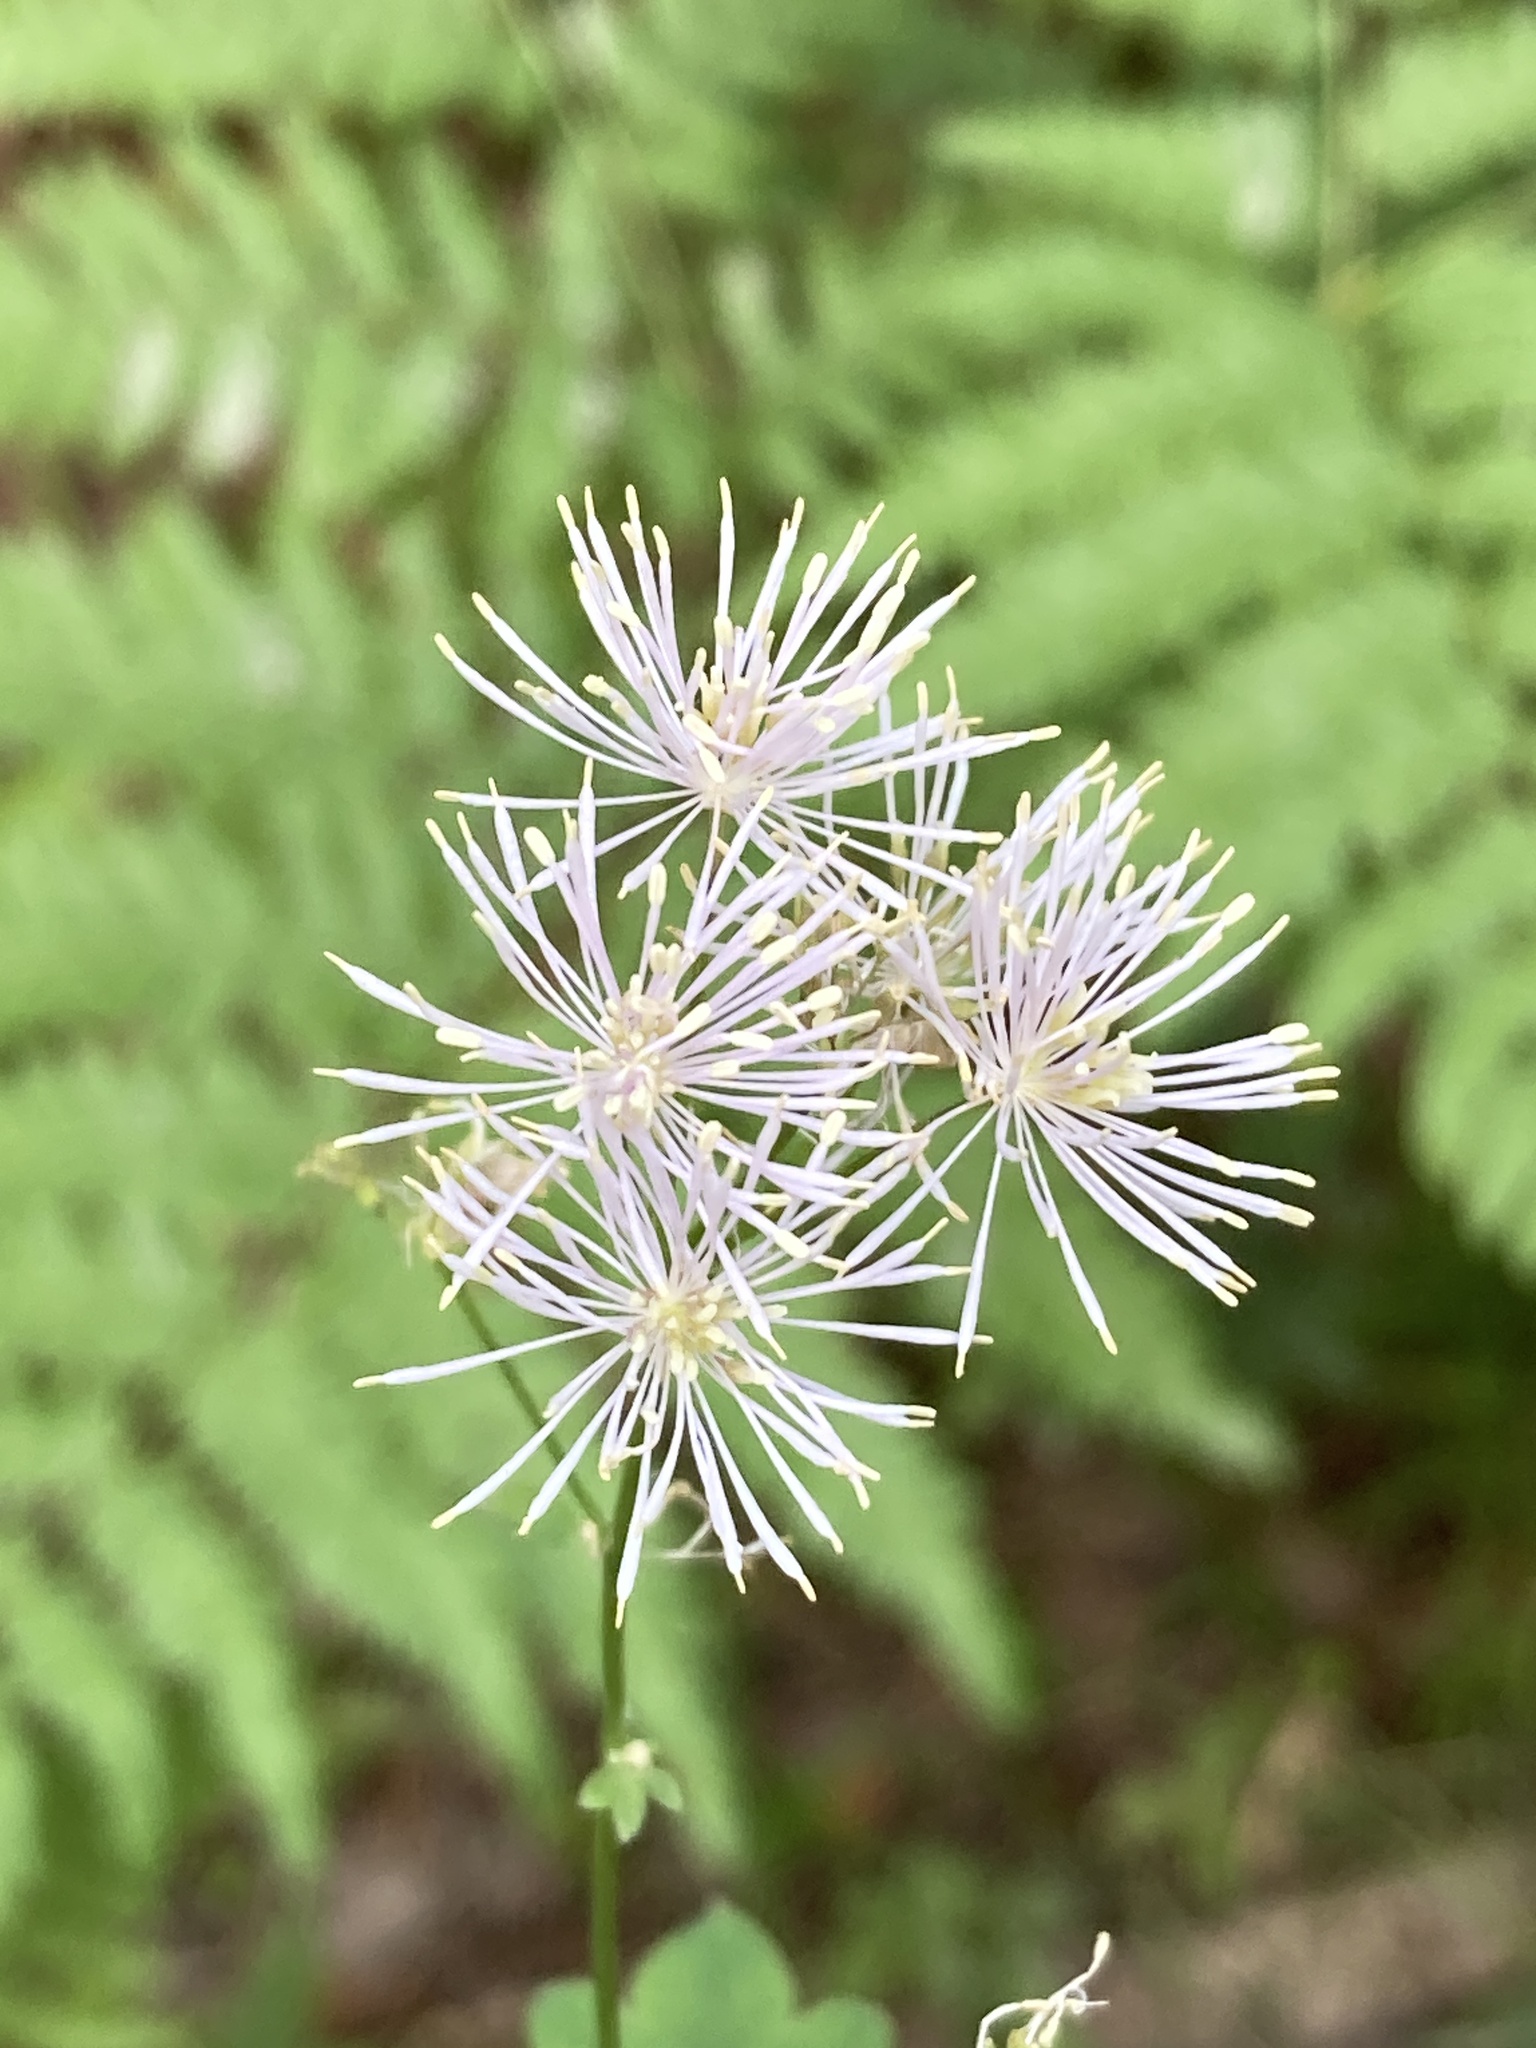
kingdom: Plantae
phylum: Tracheophyta
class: Magnoliopsida
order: Ranunculales
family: Ranunculaceae
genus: Thalictrum
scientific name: Thalictrum aquilegiifolium
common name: French meadow-rue
